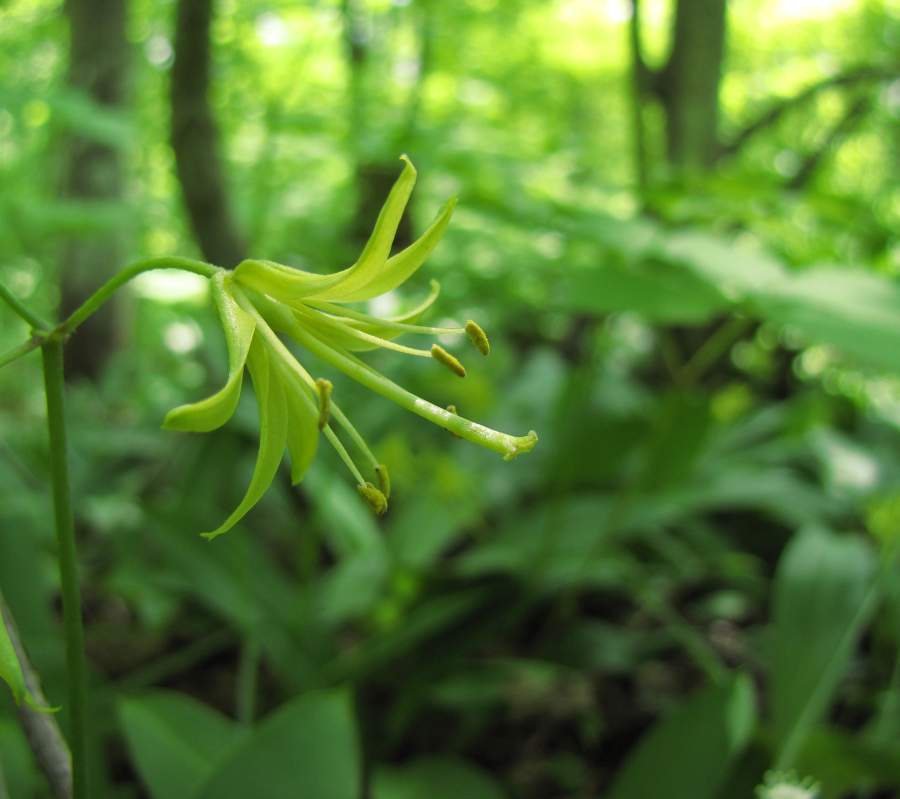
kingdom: Plantae
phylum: Tracheophyta
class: Liliopsida
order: Liliales
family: Liliaceae
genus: Clintonia
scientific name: Clintonia borealis
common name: Yellow clintonia
